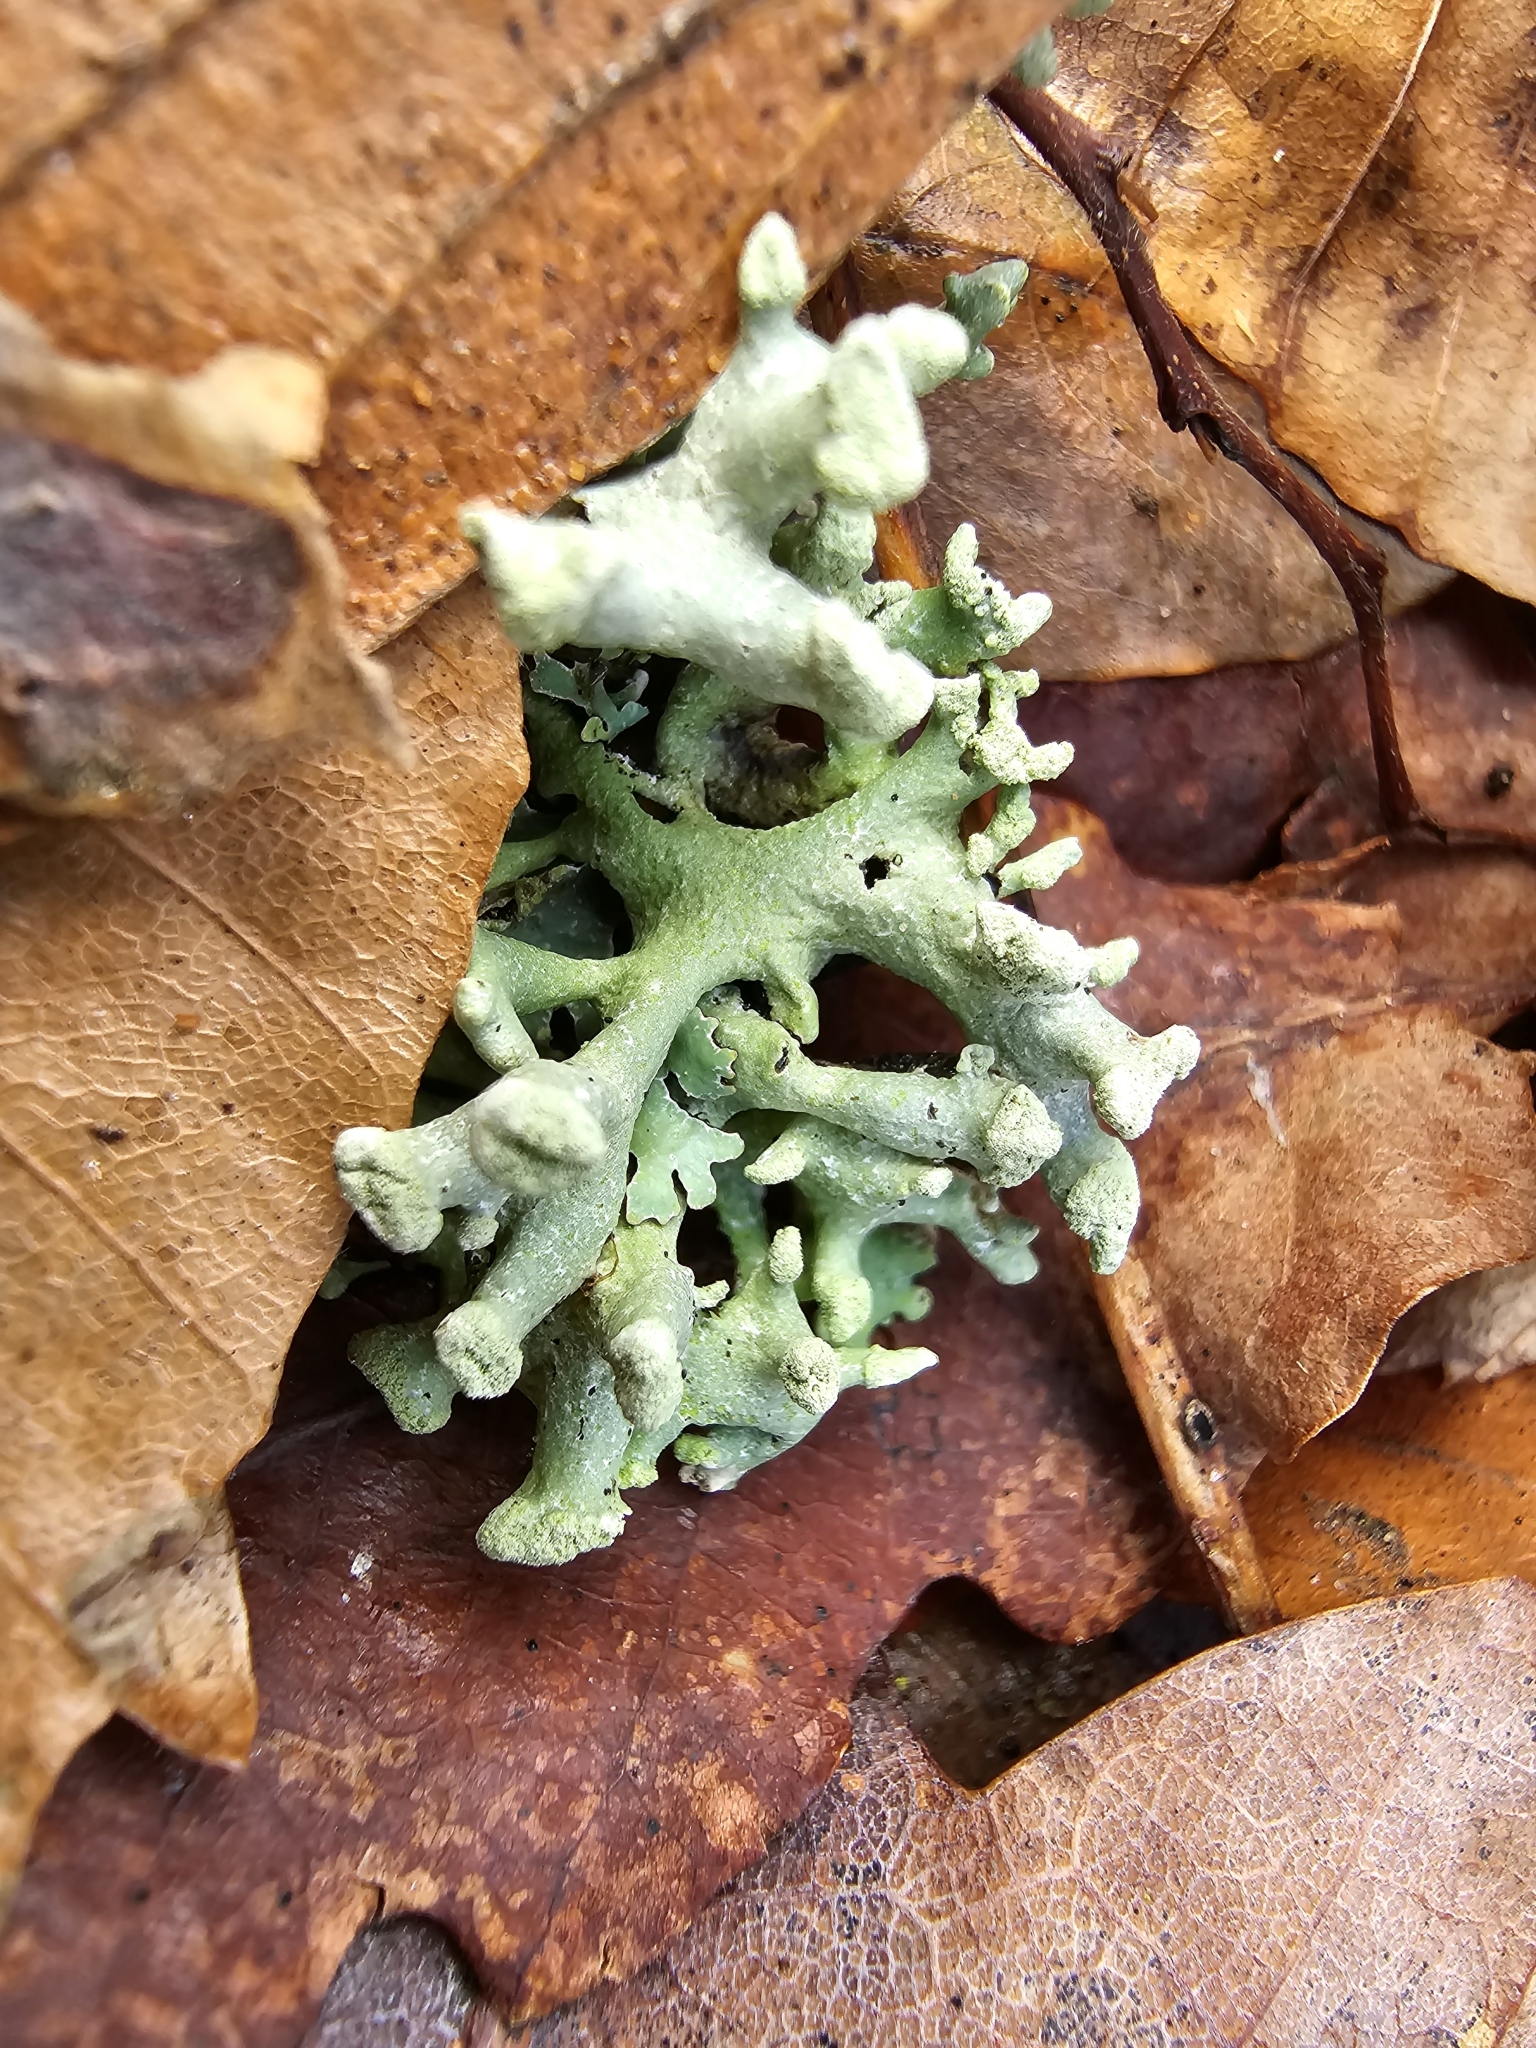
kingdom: Fungi
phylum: Ascomycota
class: Lecanoromycetes
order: Lecanorales
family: Parmeliaceae
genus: Hypogymnia
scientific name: Hypogymnia tubulosa
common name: Powder-headed tube lichen
